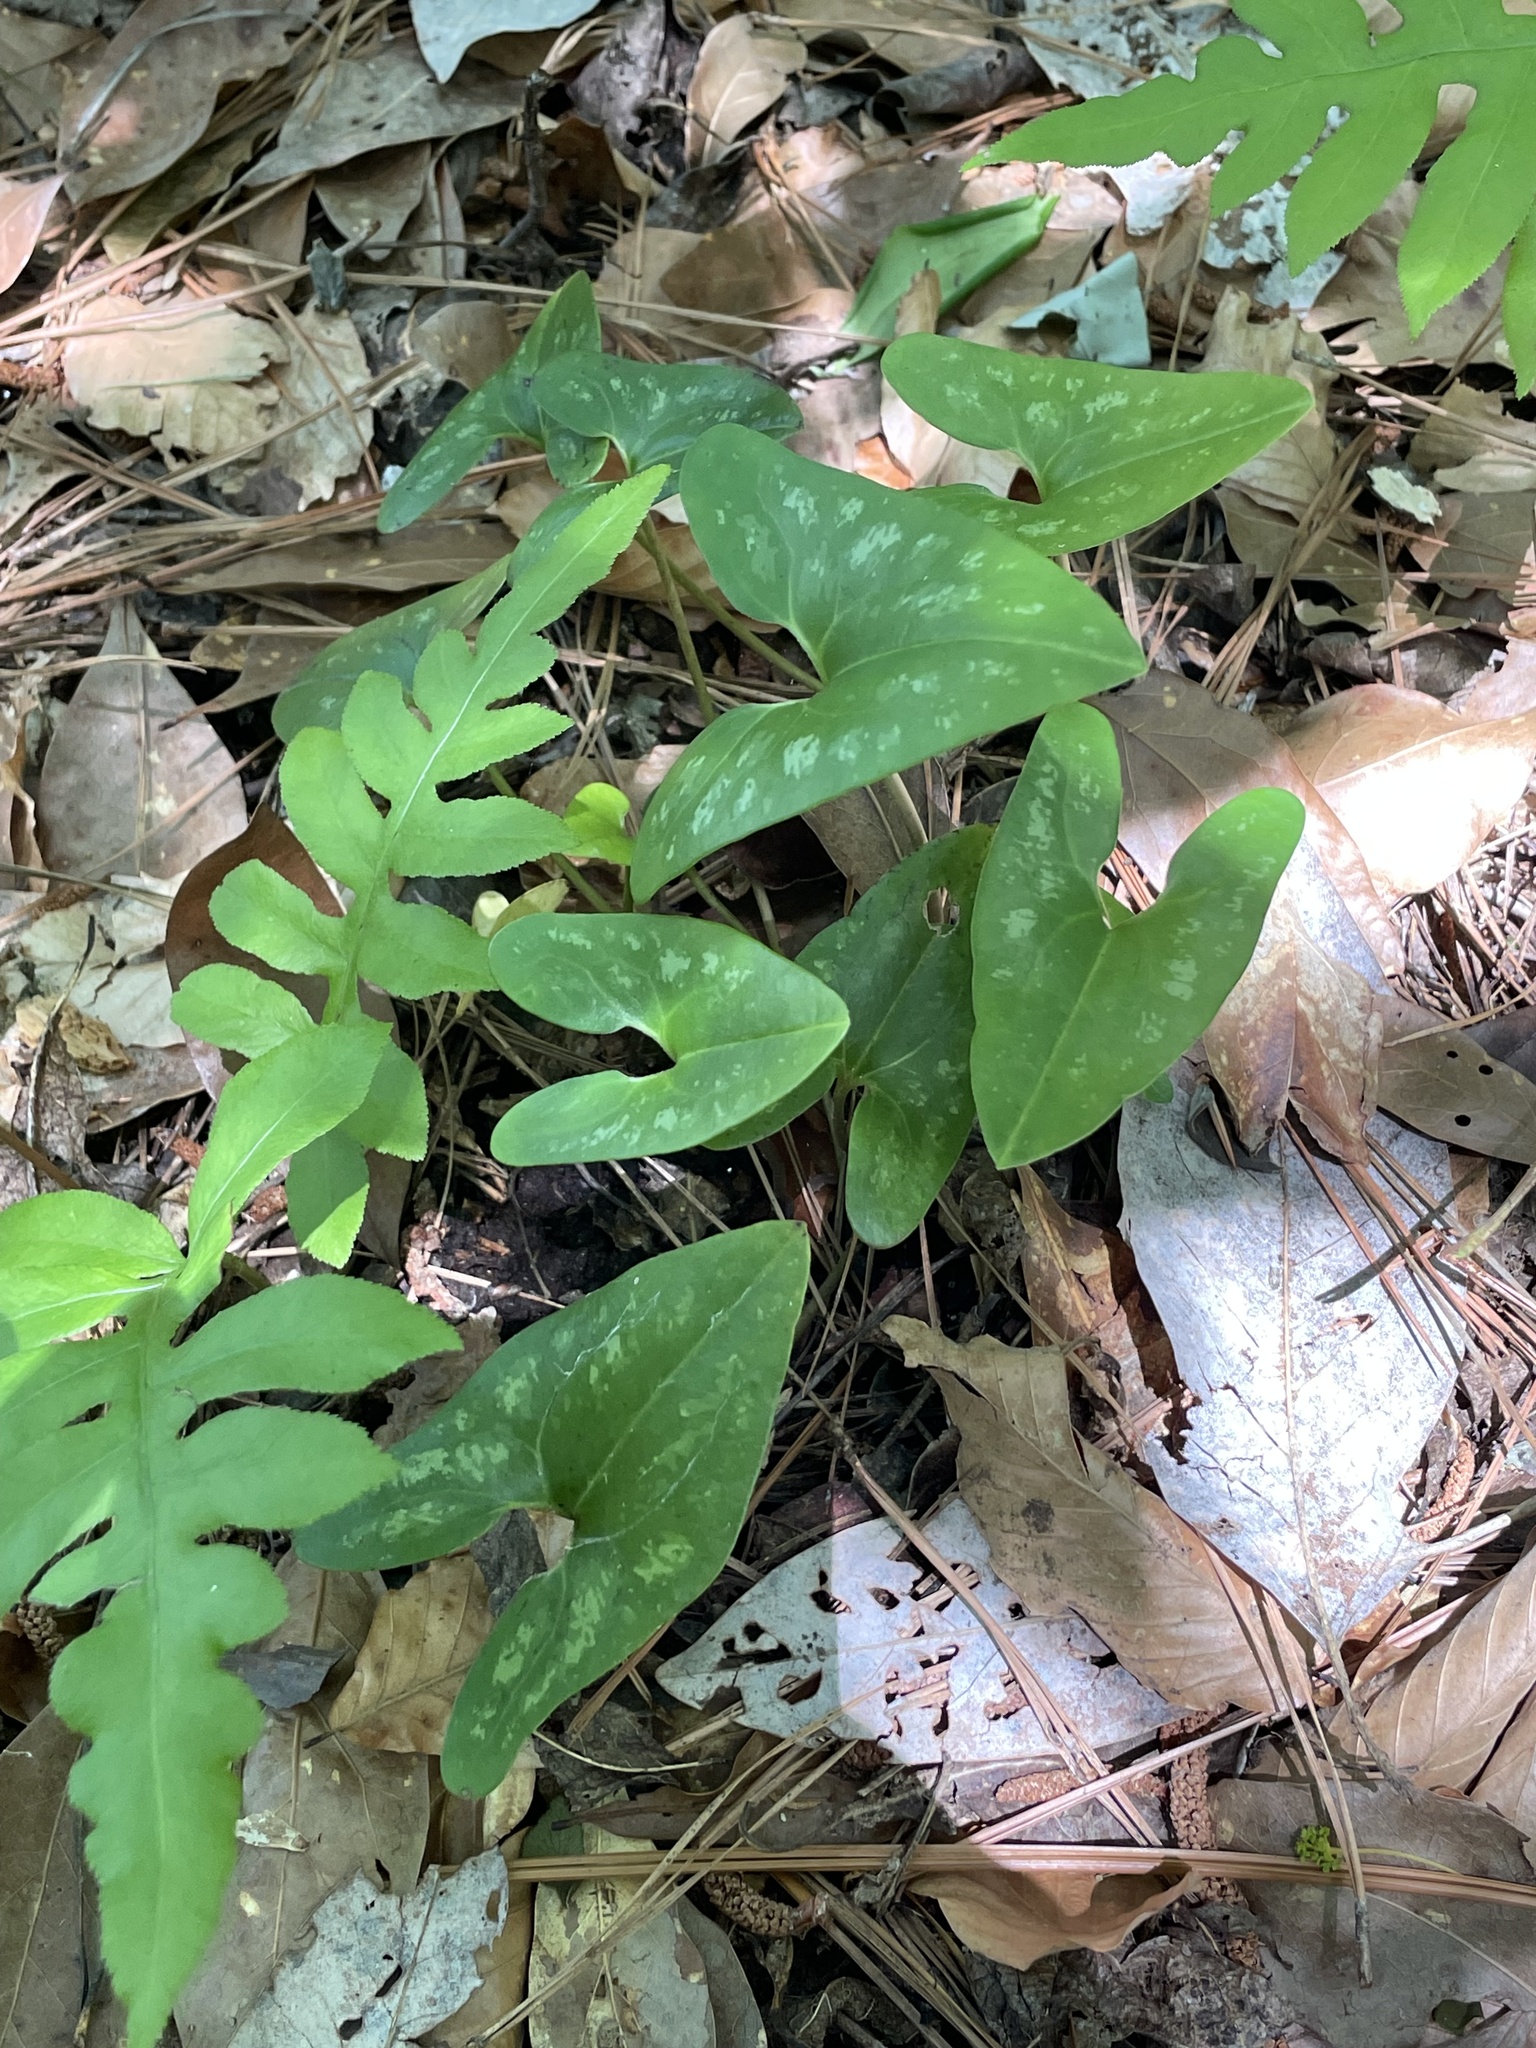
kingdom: Plantae
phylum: Tracheophyta
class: Magnoliopsida
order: Piperales
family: Aristolochiaceae
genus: Hexastylis
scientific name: Hexastylis arifolia
